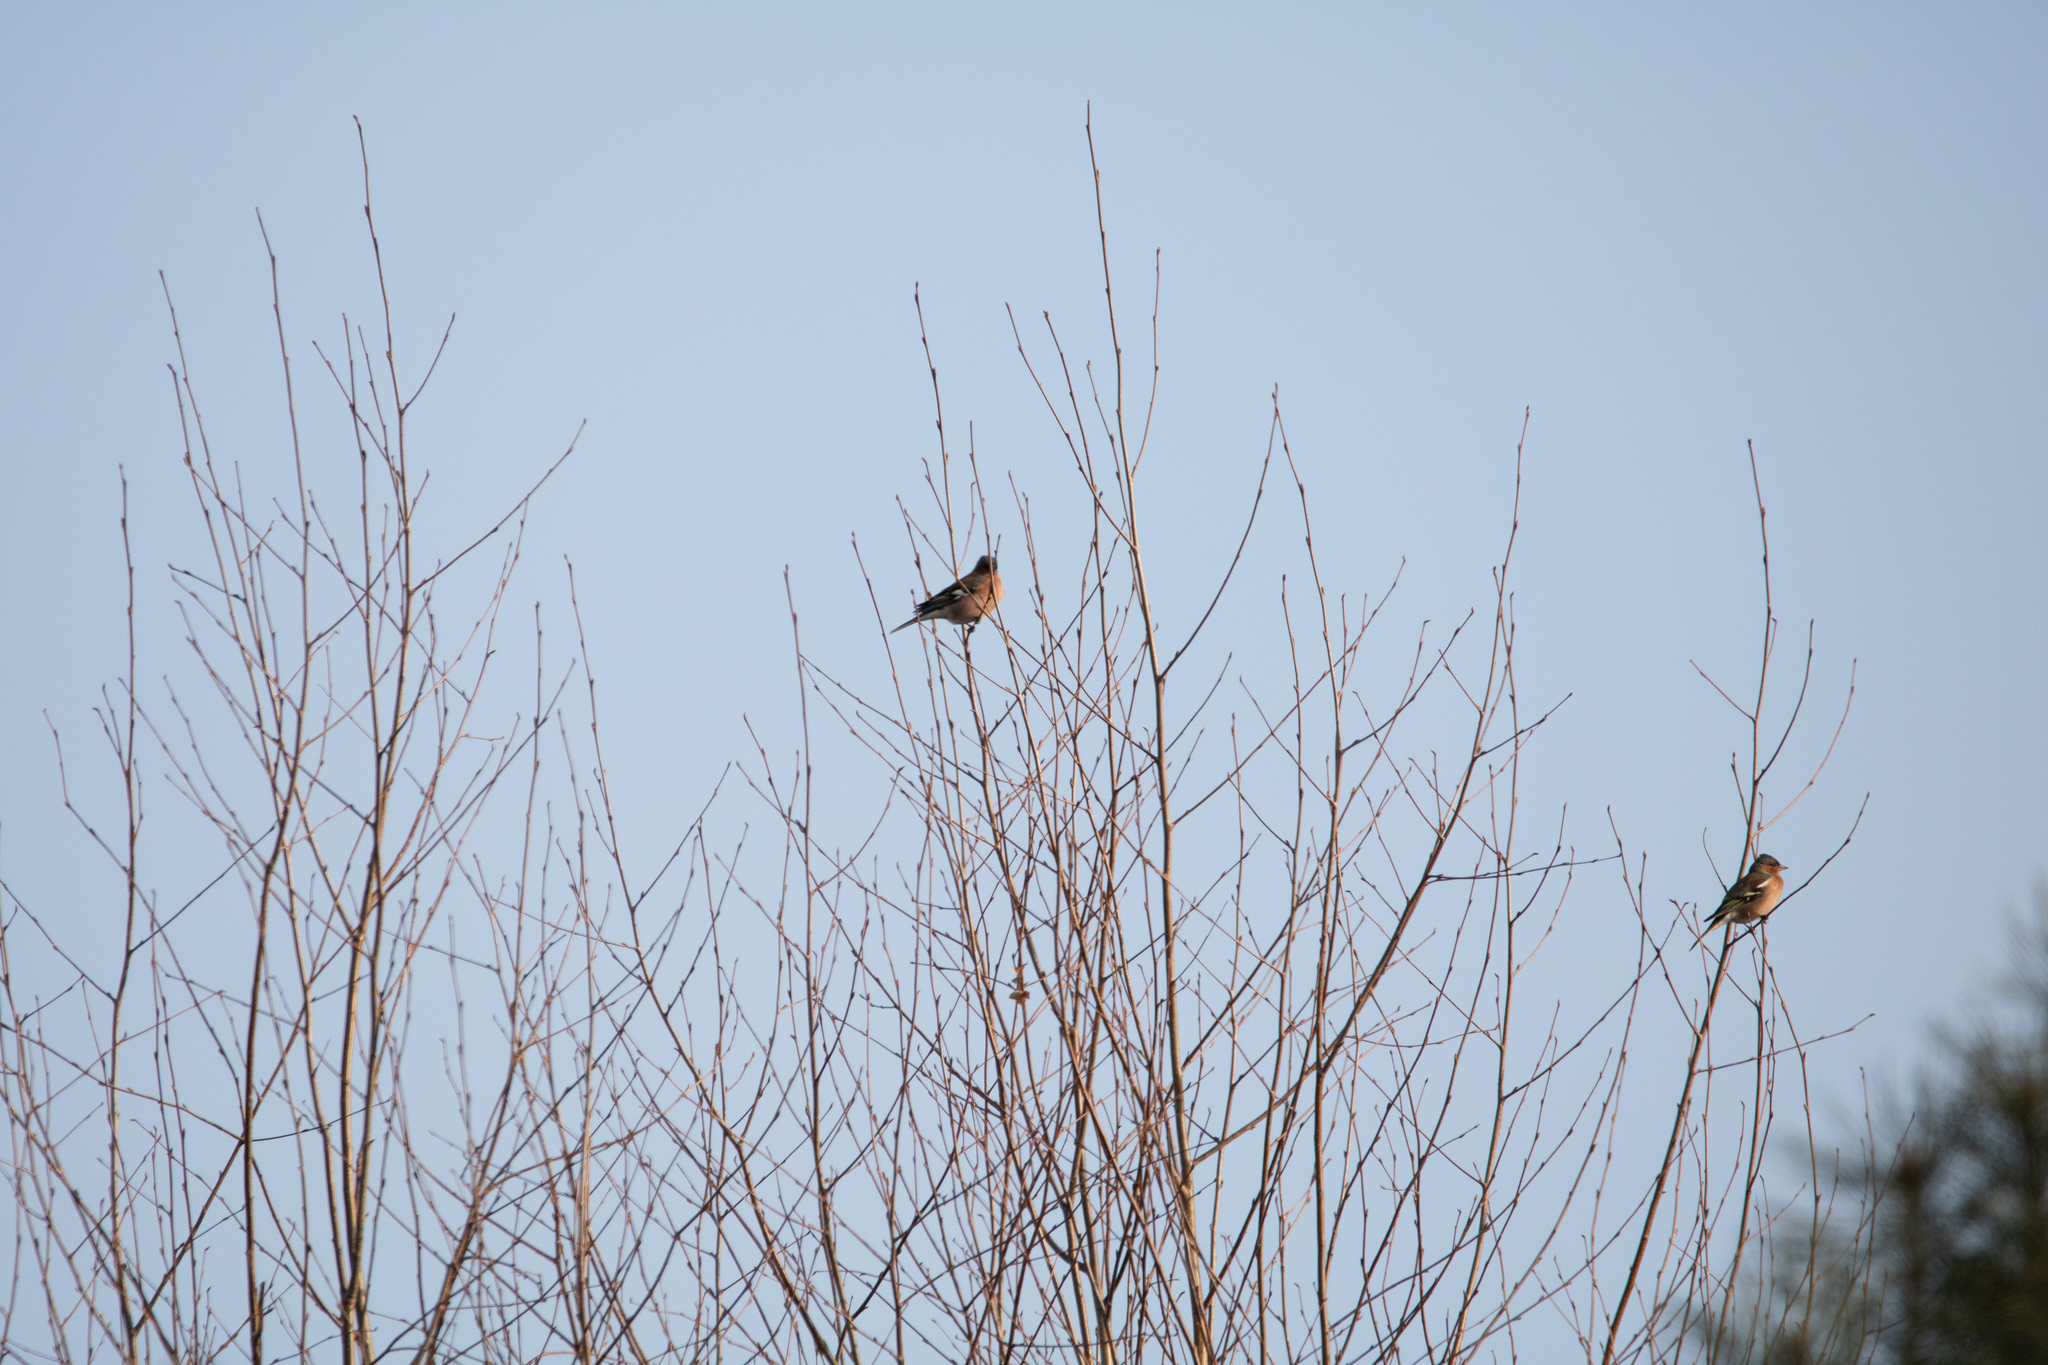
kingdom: Animalia
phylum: Chordata
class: Aves
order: Passeriformes
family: Fringillidae
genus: Fringilla
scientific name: Fringilla coelebs
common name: Common chaffinch
